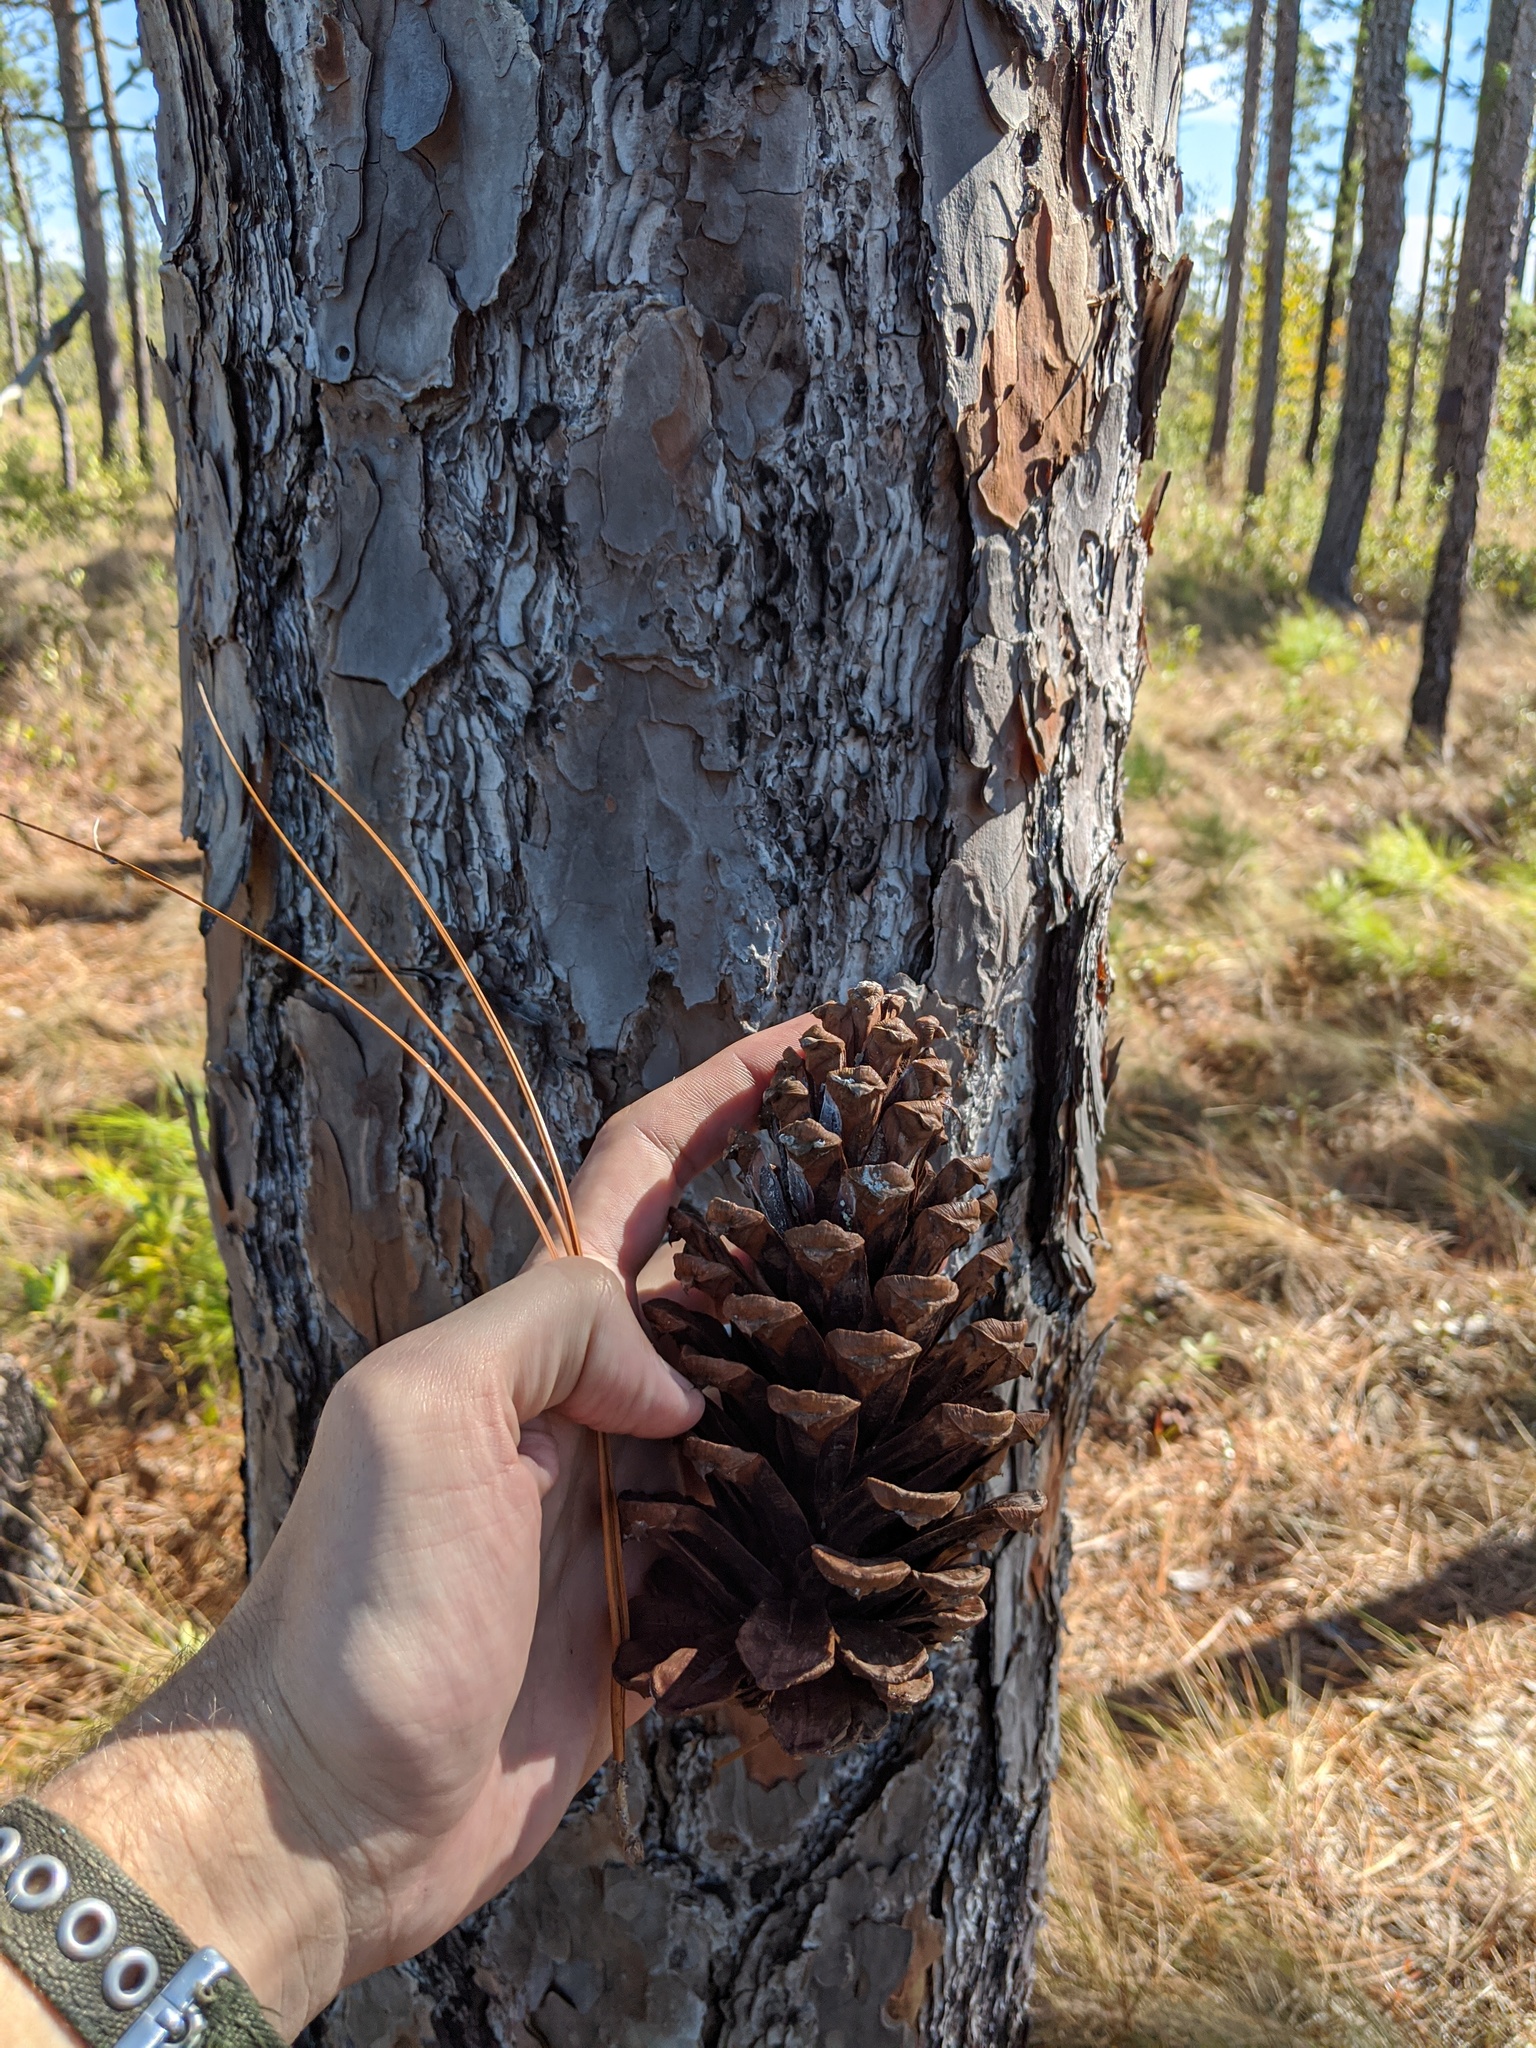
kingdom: Plantae
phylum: Tracheophyta
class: Pinopsida
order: Pinales
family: Pinaceae
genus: Pinus
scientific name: Pinus palustris
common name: Longleaf pine
